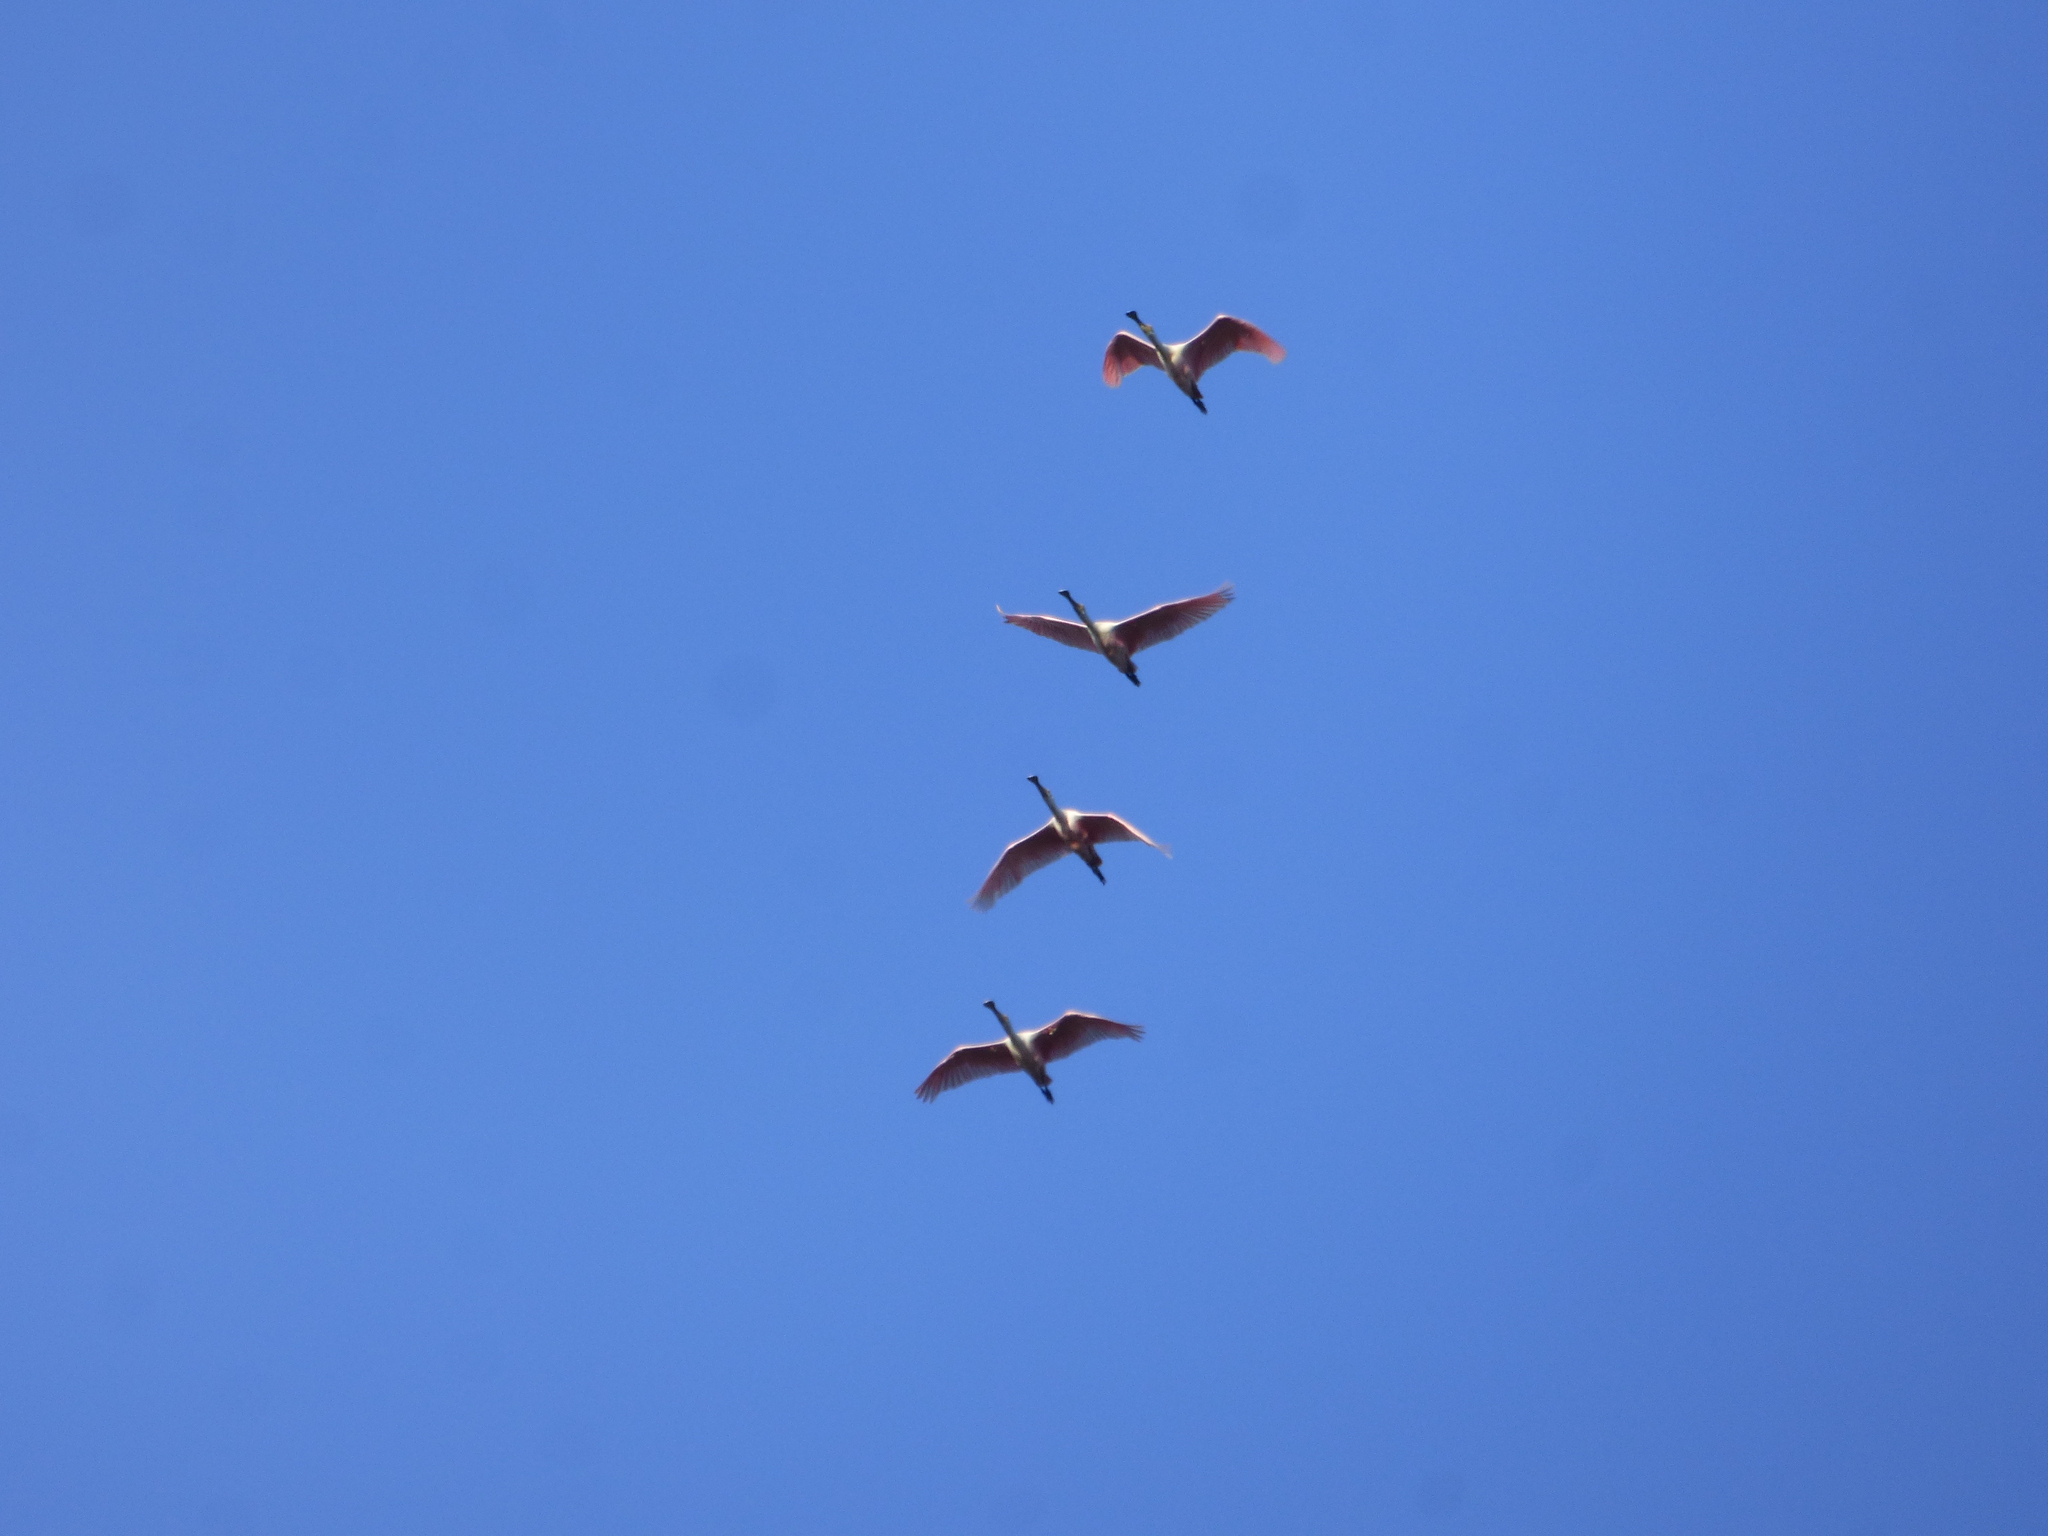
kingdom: Animalia
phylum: Chordata
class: Aves
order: Pelecaniformes
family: Threskiornithidae
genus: Platalea
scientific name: Platalea ajaja
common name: Roseate spoonbill
